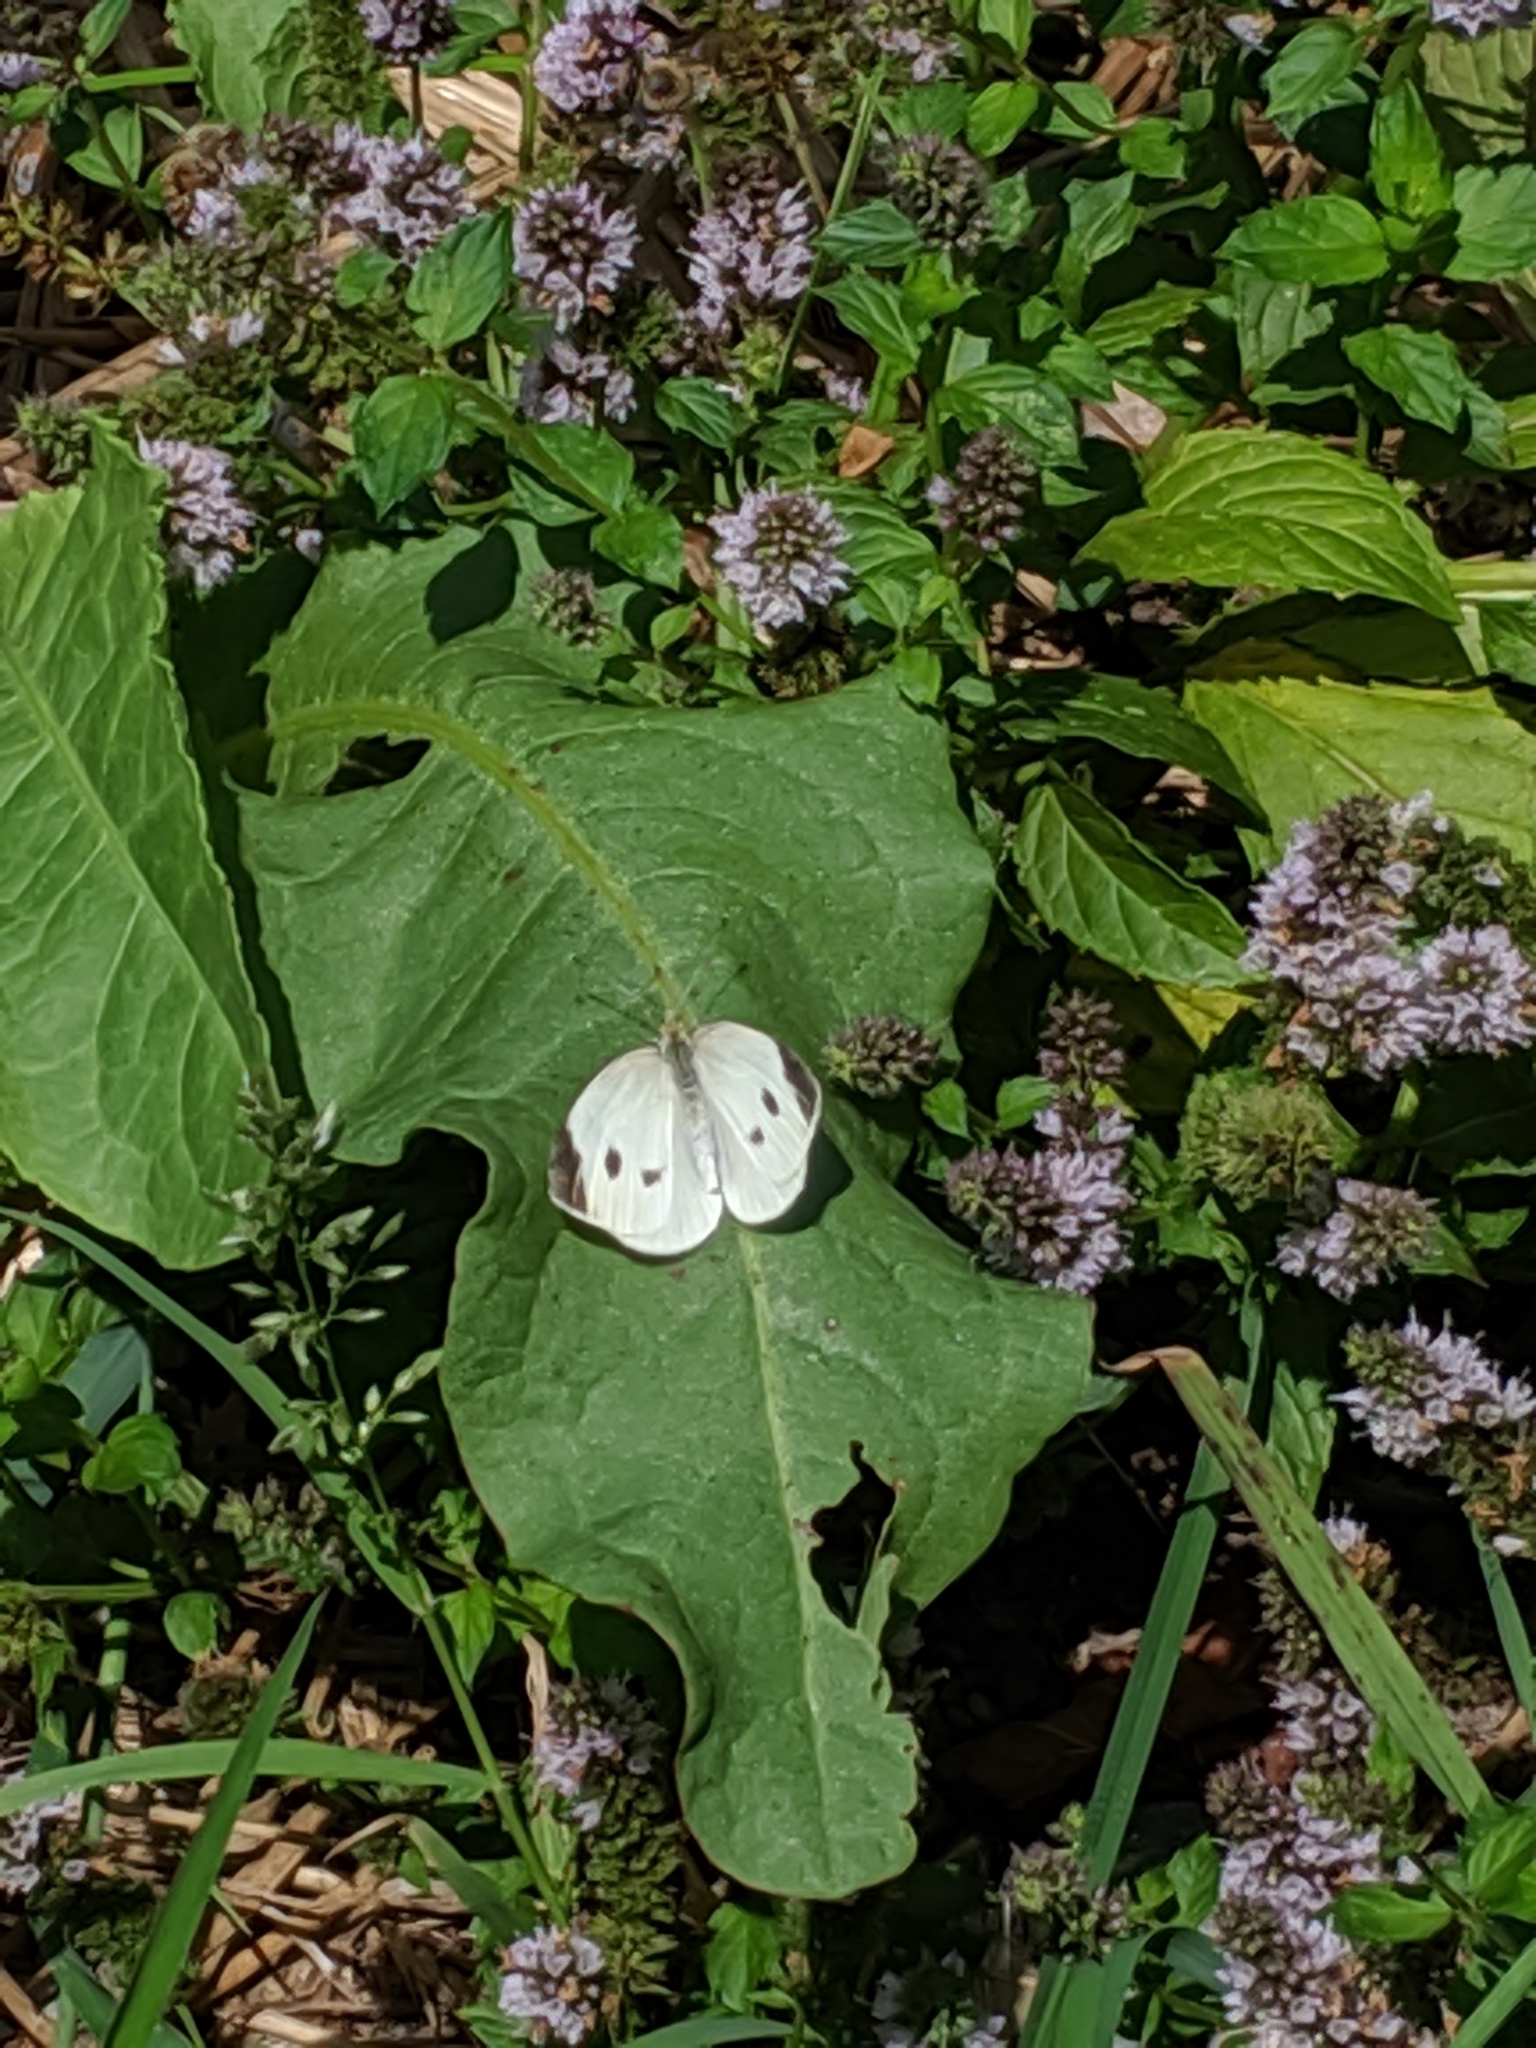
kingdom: Animalia
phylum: Arthropoda
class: Insecta
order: Lepidoptera
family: Pieridae
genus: Pieris
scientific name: Pieris rapae
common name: Small white
